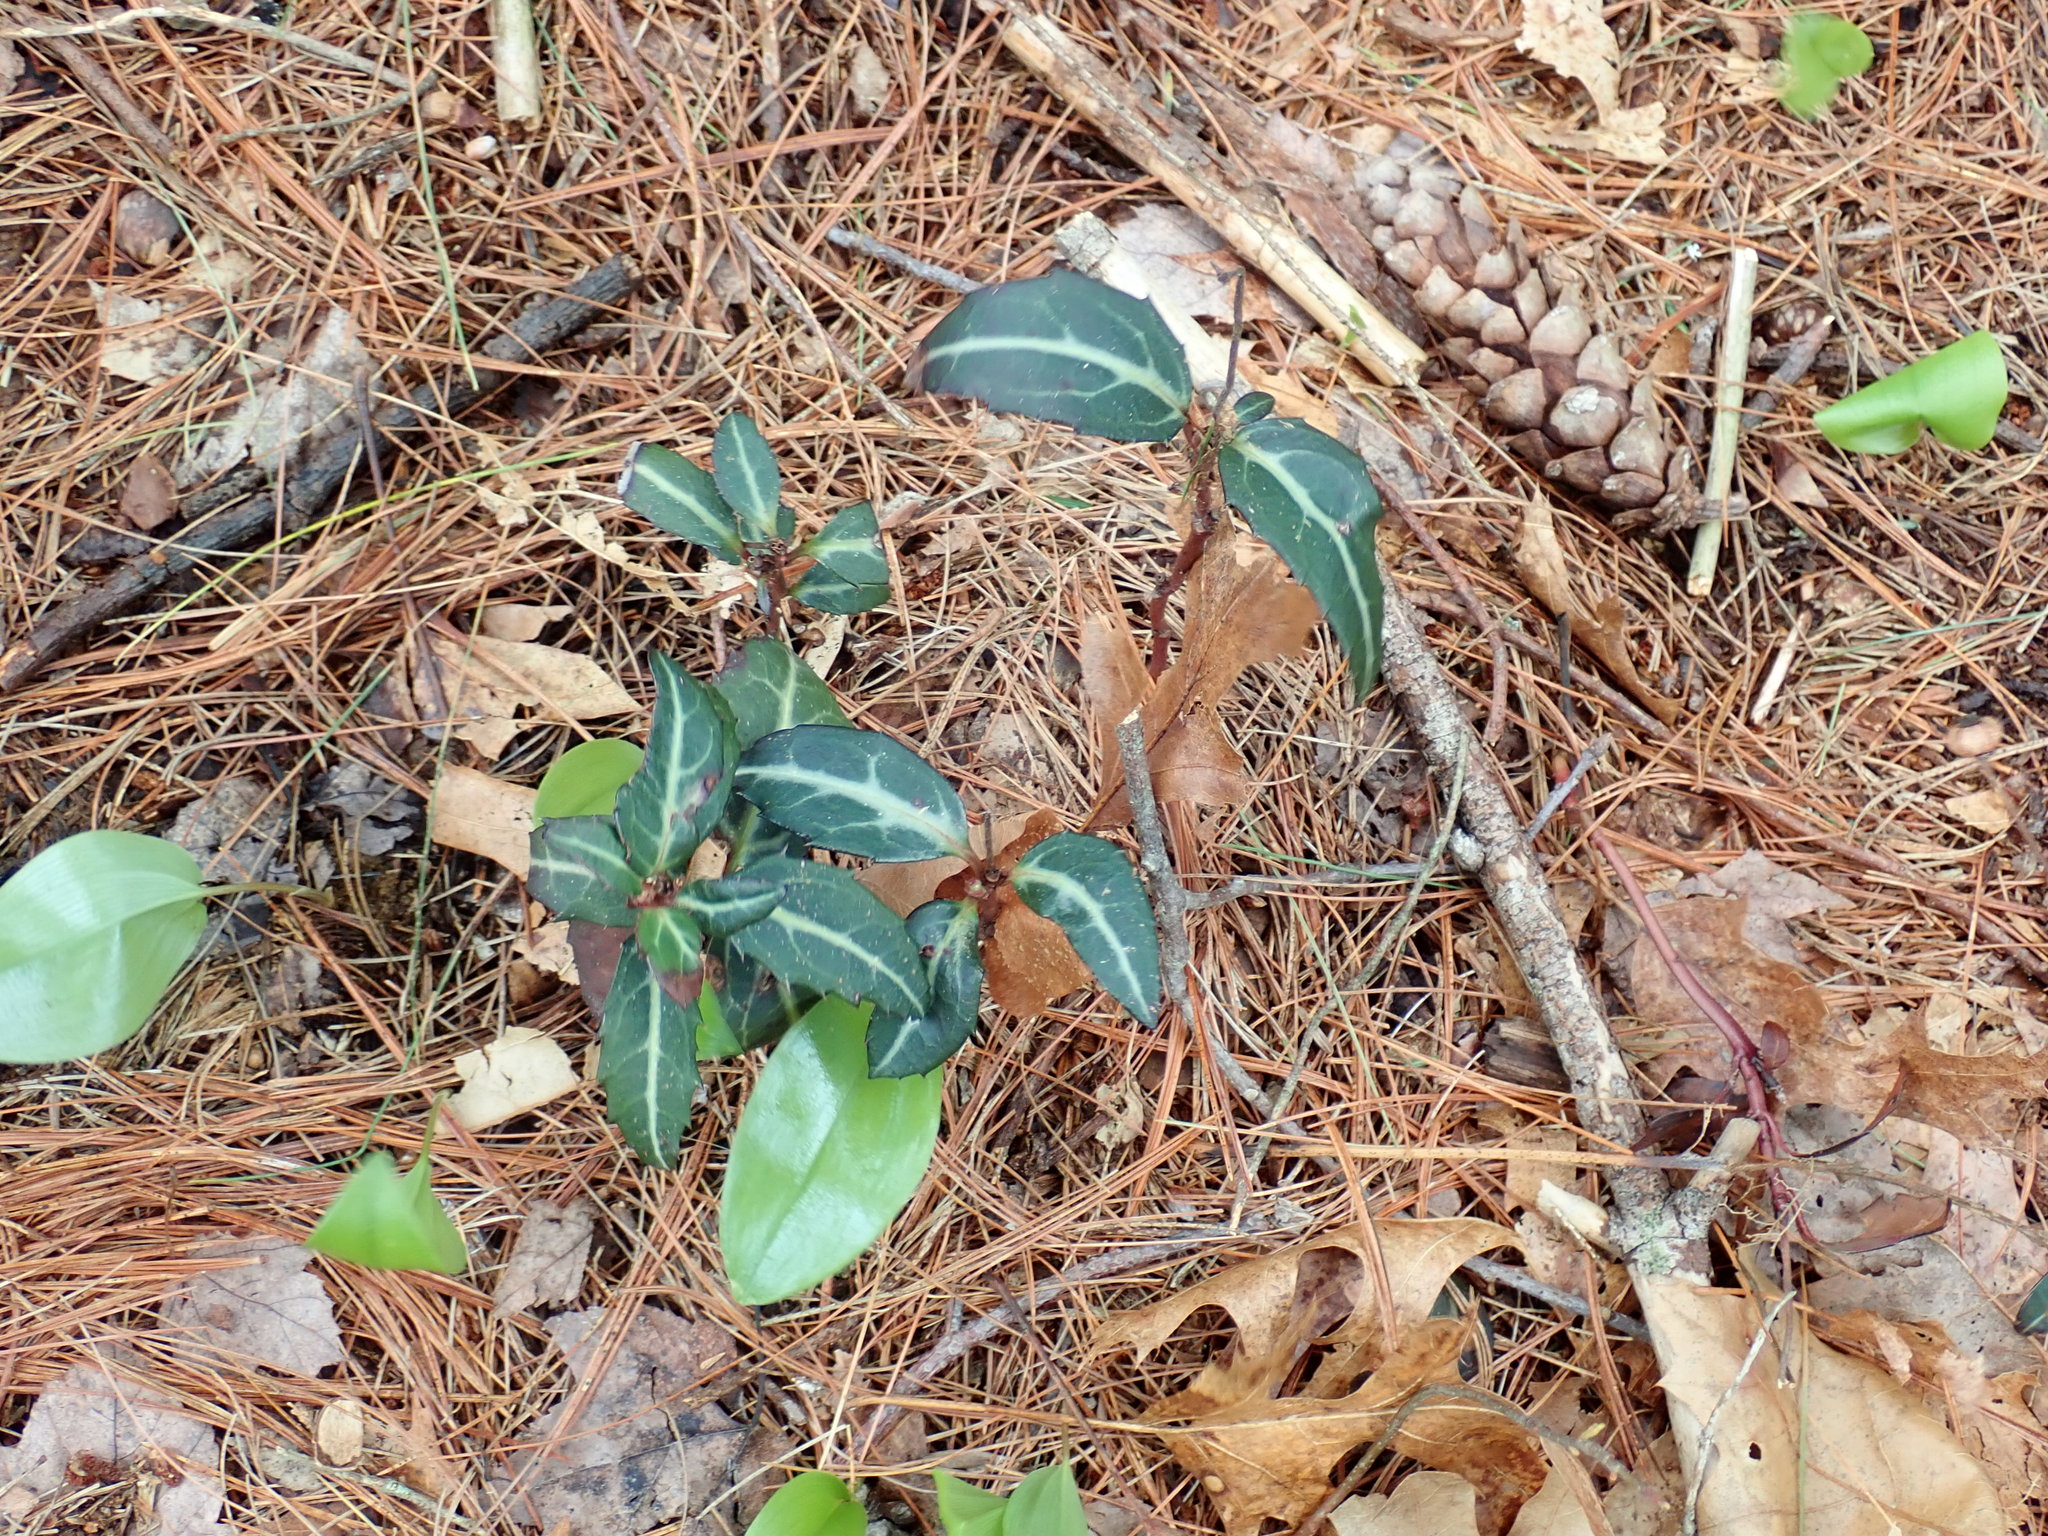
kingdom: Plantae
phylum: Tracheophyta
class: Magnoliopsida
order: Ericales
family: Ericaceae
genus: Chimaphila
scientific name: Chimaphila maculata
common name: Spotted pipsissewa
